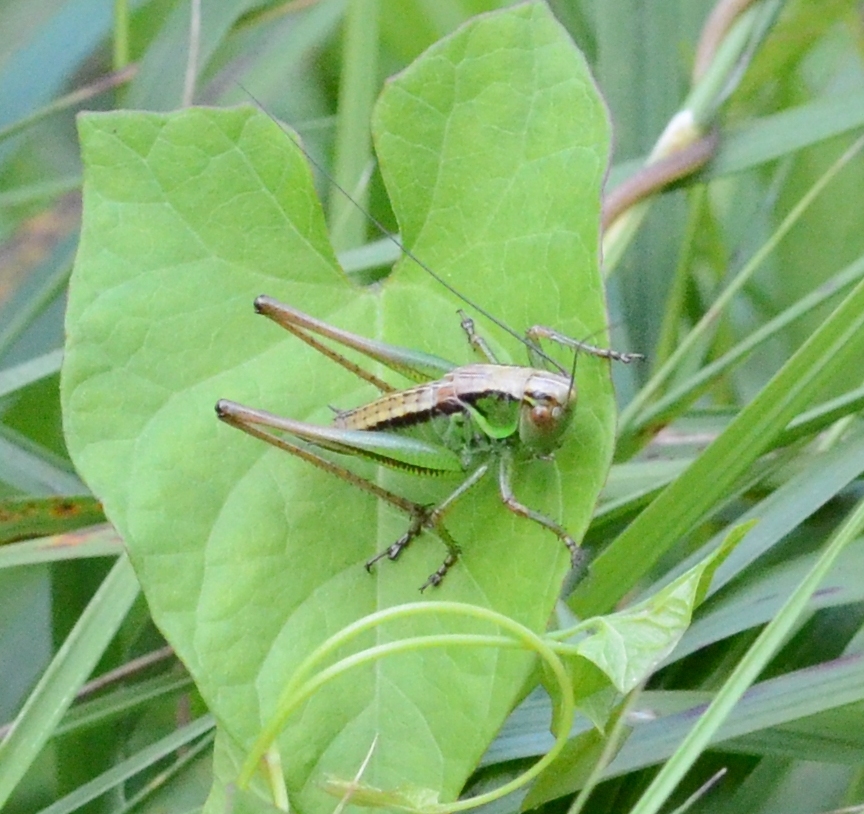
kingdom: Animalia
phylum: Arthropoda
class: Insecta
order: Orthoptera
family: Tettigoniidae
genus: Roeseliana
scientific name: Roeseliana roeselii
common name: Roesel's bush cricket
